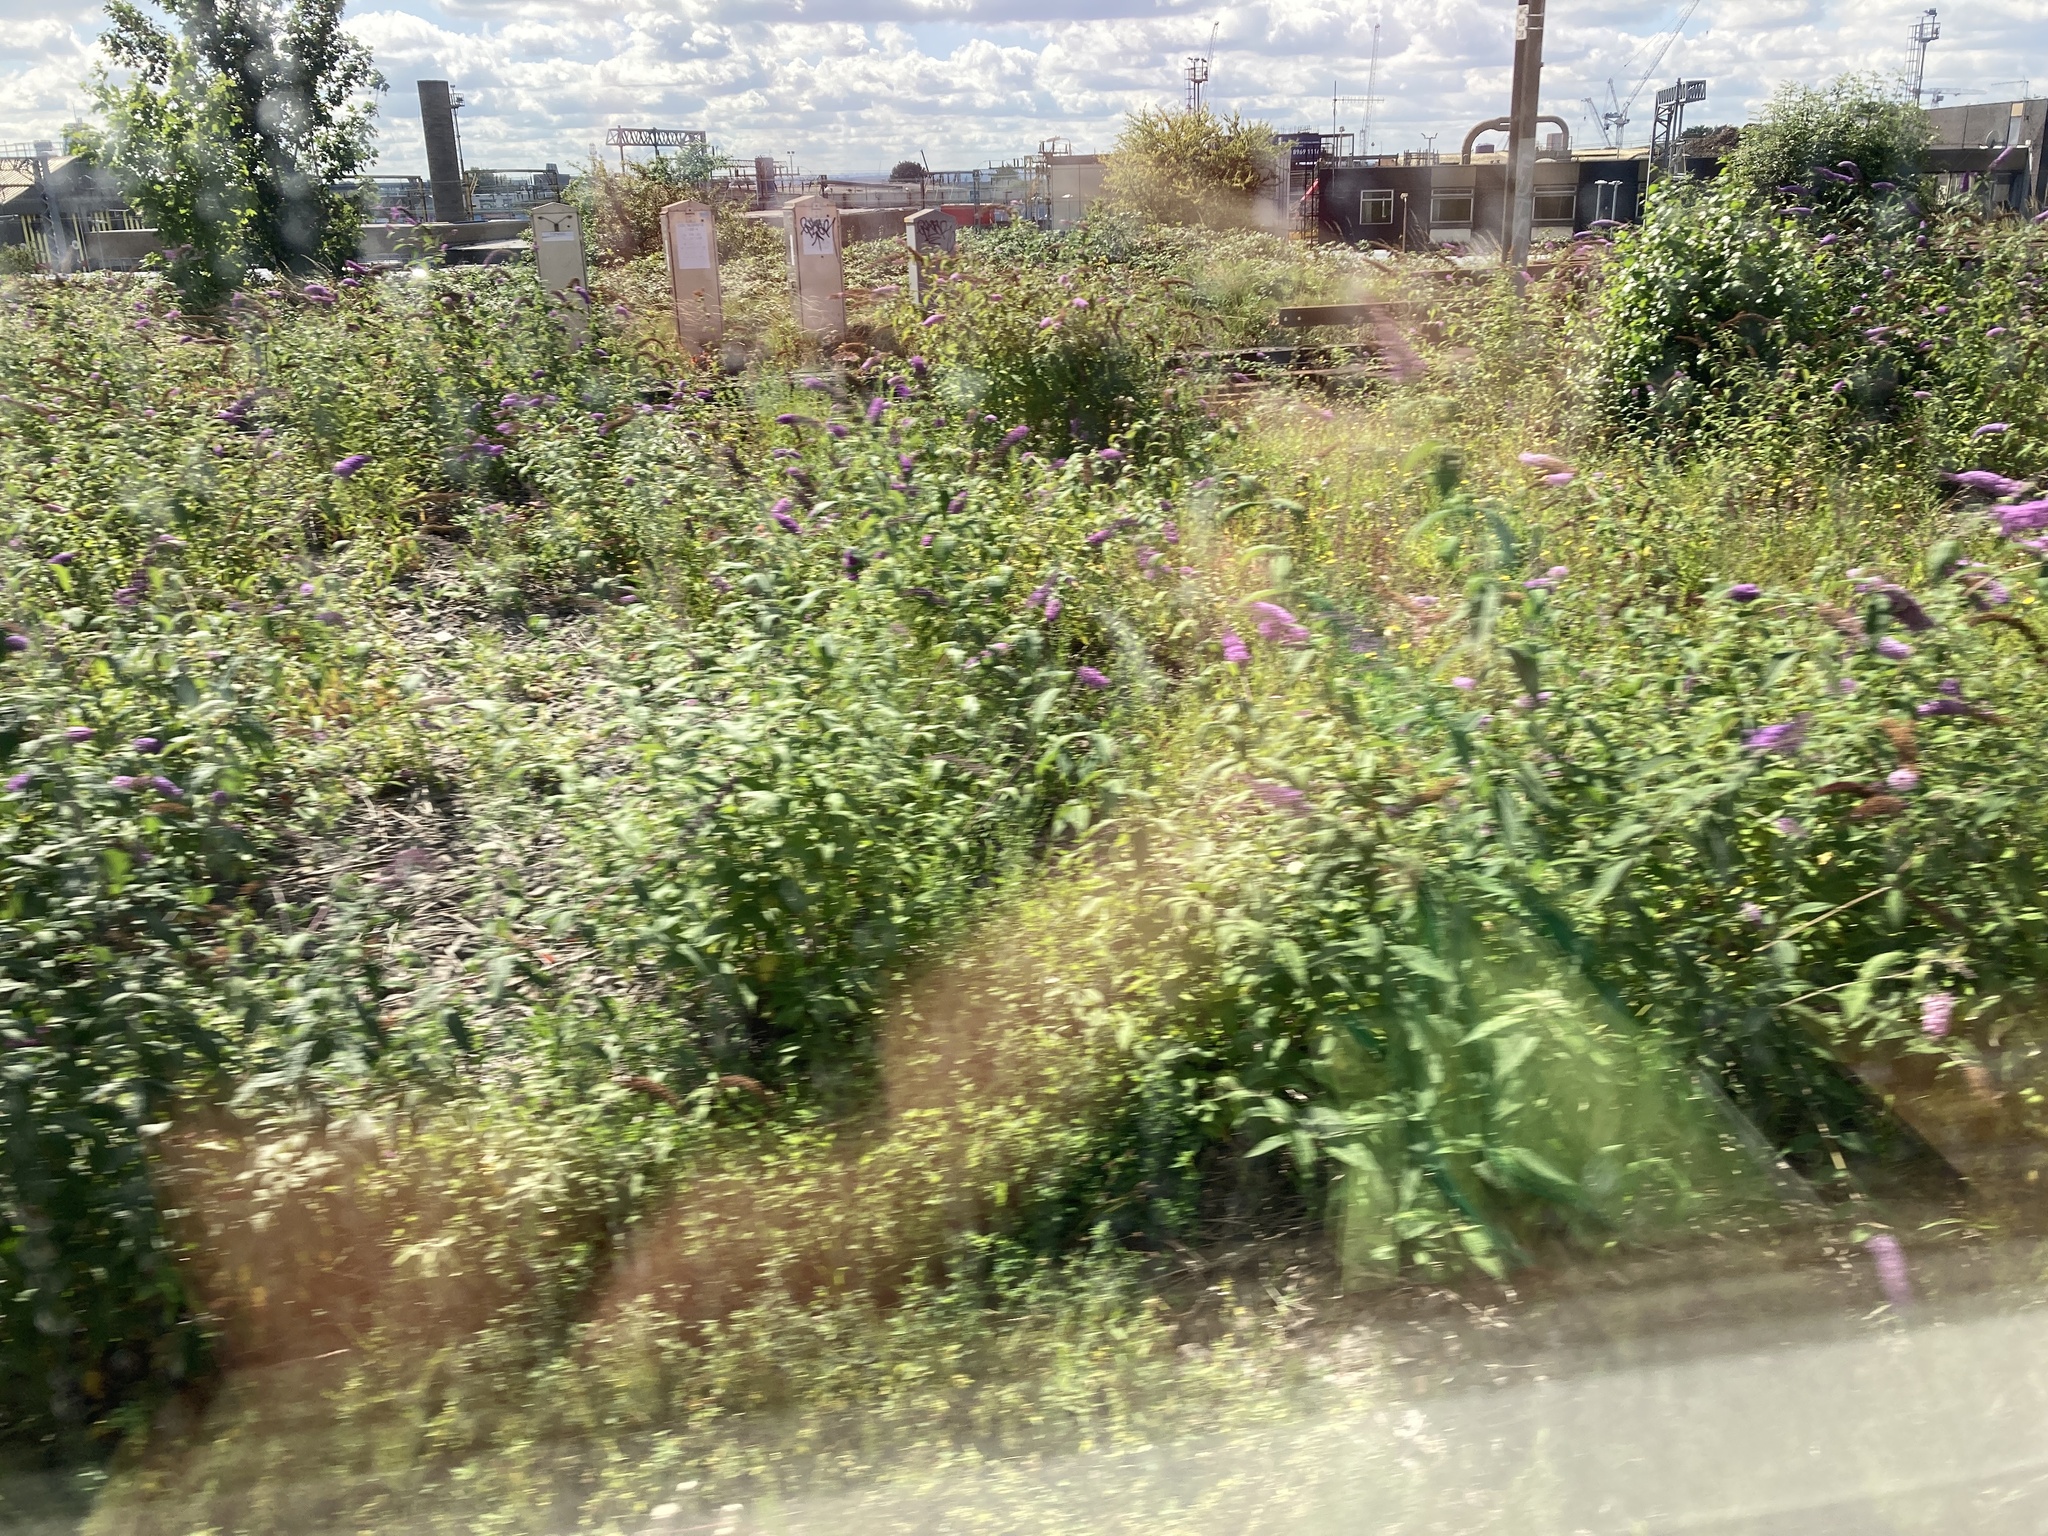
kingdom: Plantae
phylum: Tracheophyta
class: Magnoliopsida
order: Lamiales
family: Scrophulariaceae
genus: Buddleja
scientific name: Buddleja davidii
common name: Butterfly-bush
